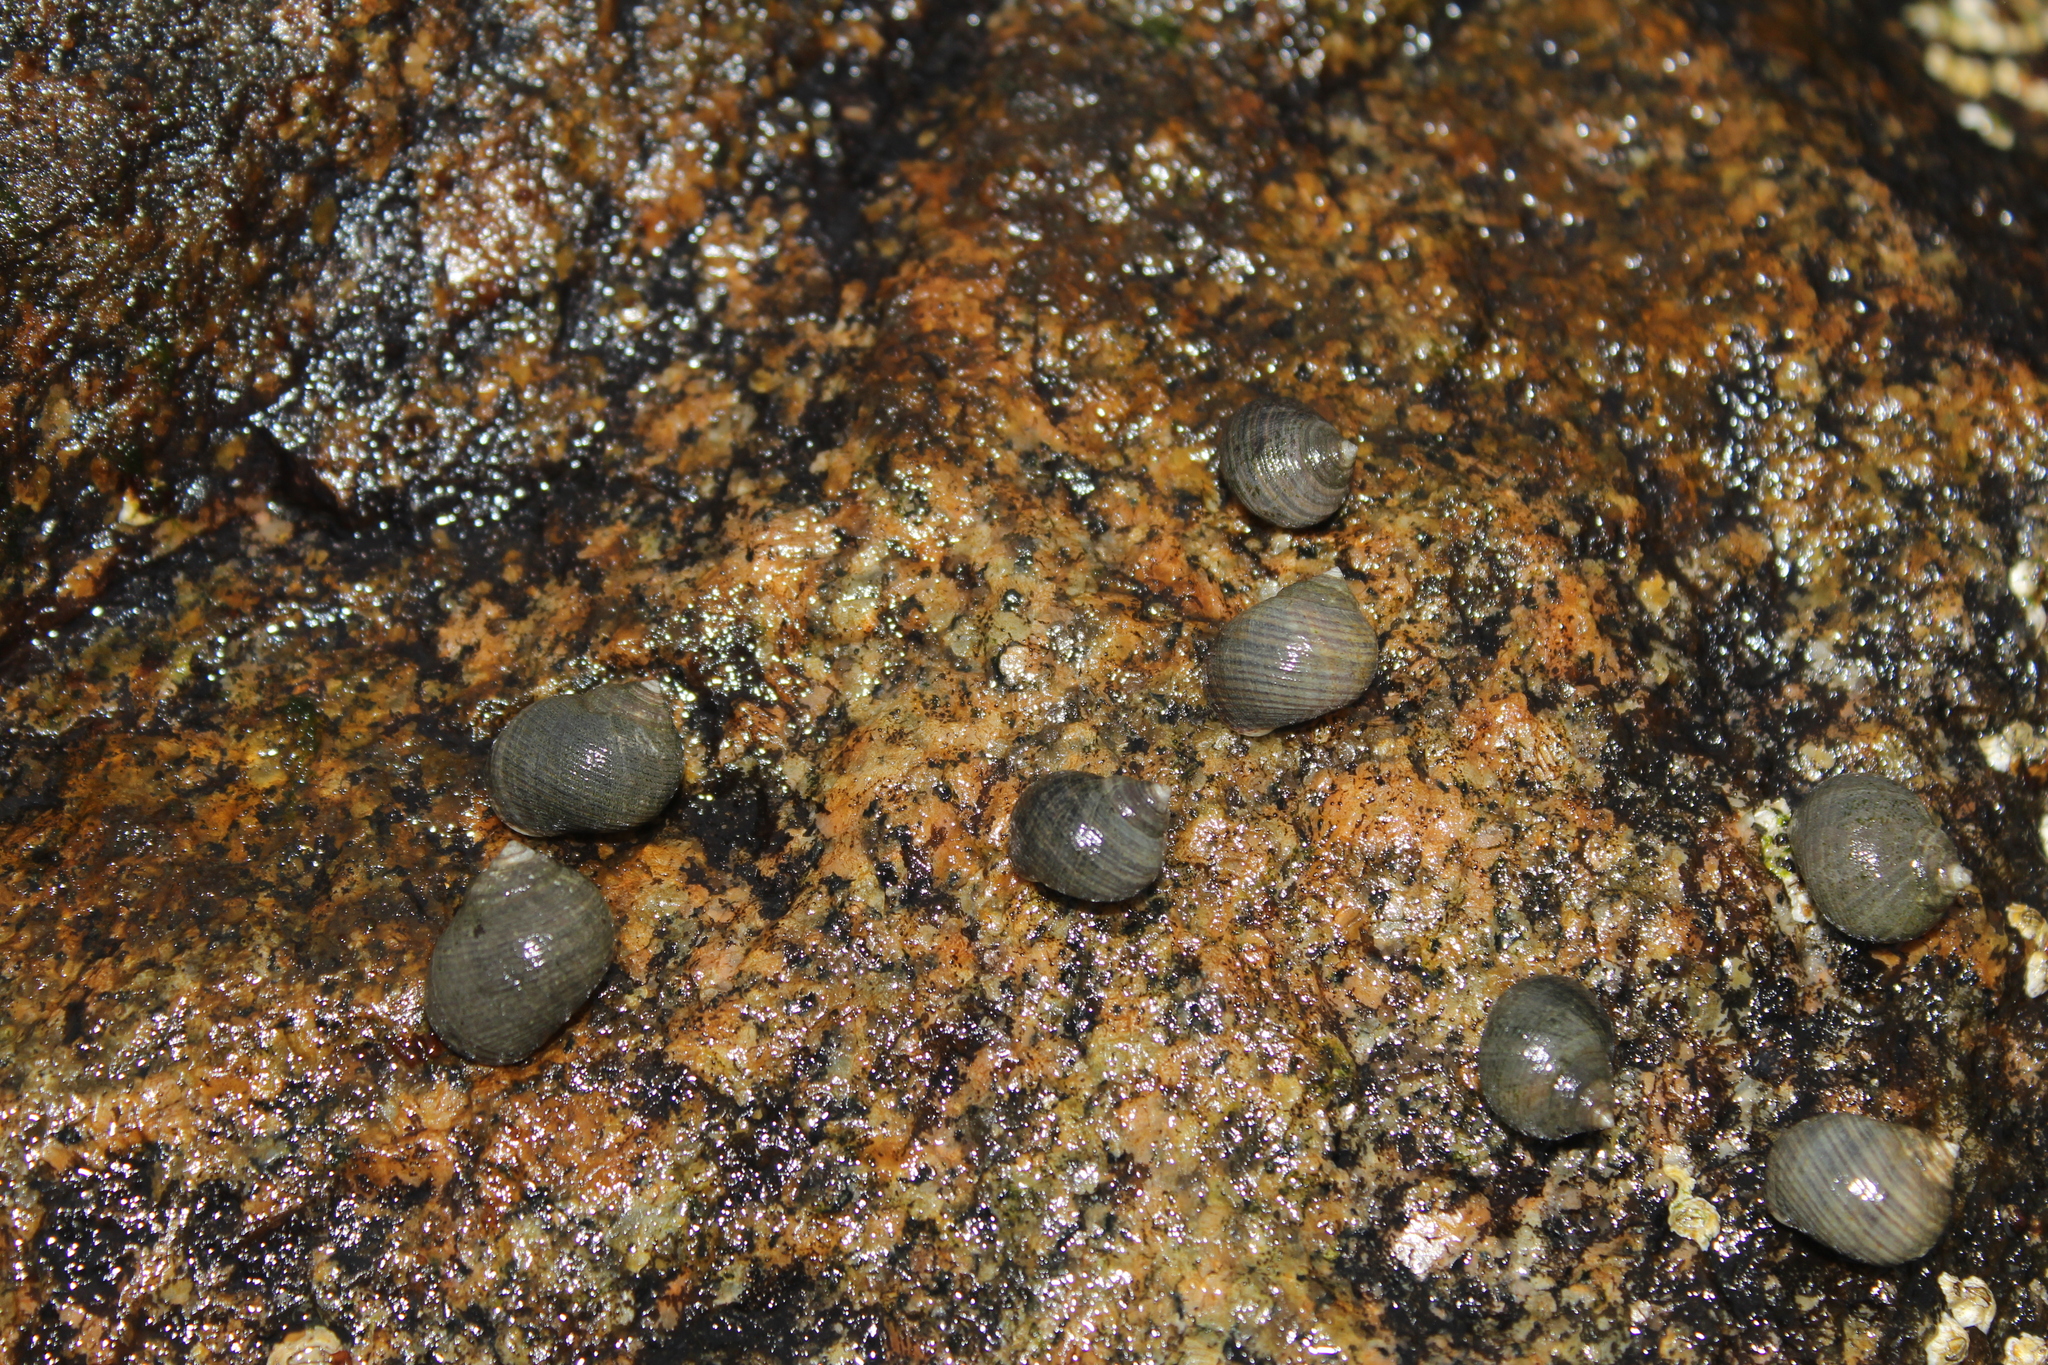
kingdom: Animalia
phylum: Mollusca
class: Gastropoda
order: Littorinimorpha
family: Littorinidae
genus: Littorina
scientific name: Littorina littorea
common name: Common periwinkle
